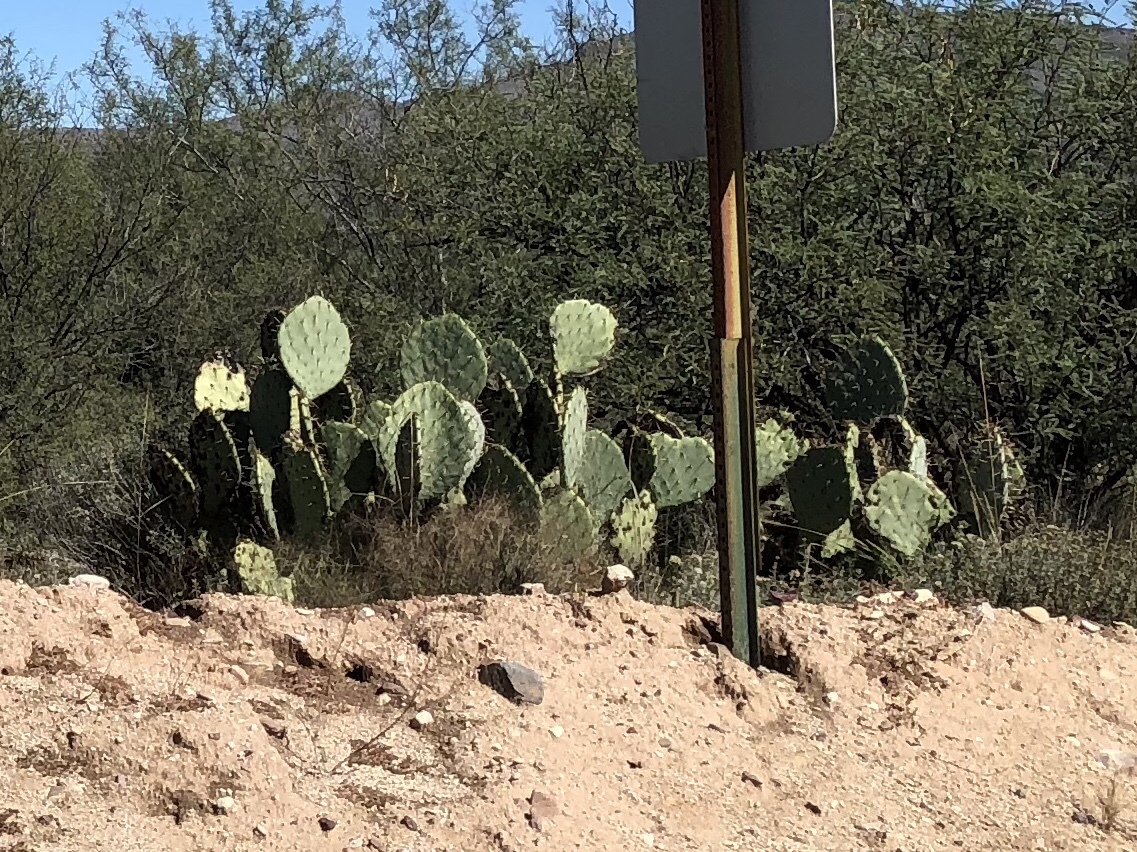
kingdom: Plantae
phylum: Tracheophyta
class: Magnoliopsida
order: Caryophyllales
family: Cactaceae
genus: Opuntia
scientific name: Opuntia engelmannii
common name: Cactus-apple
